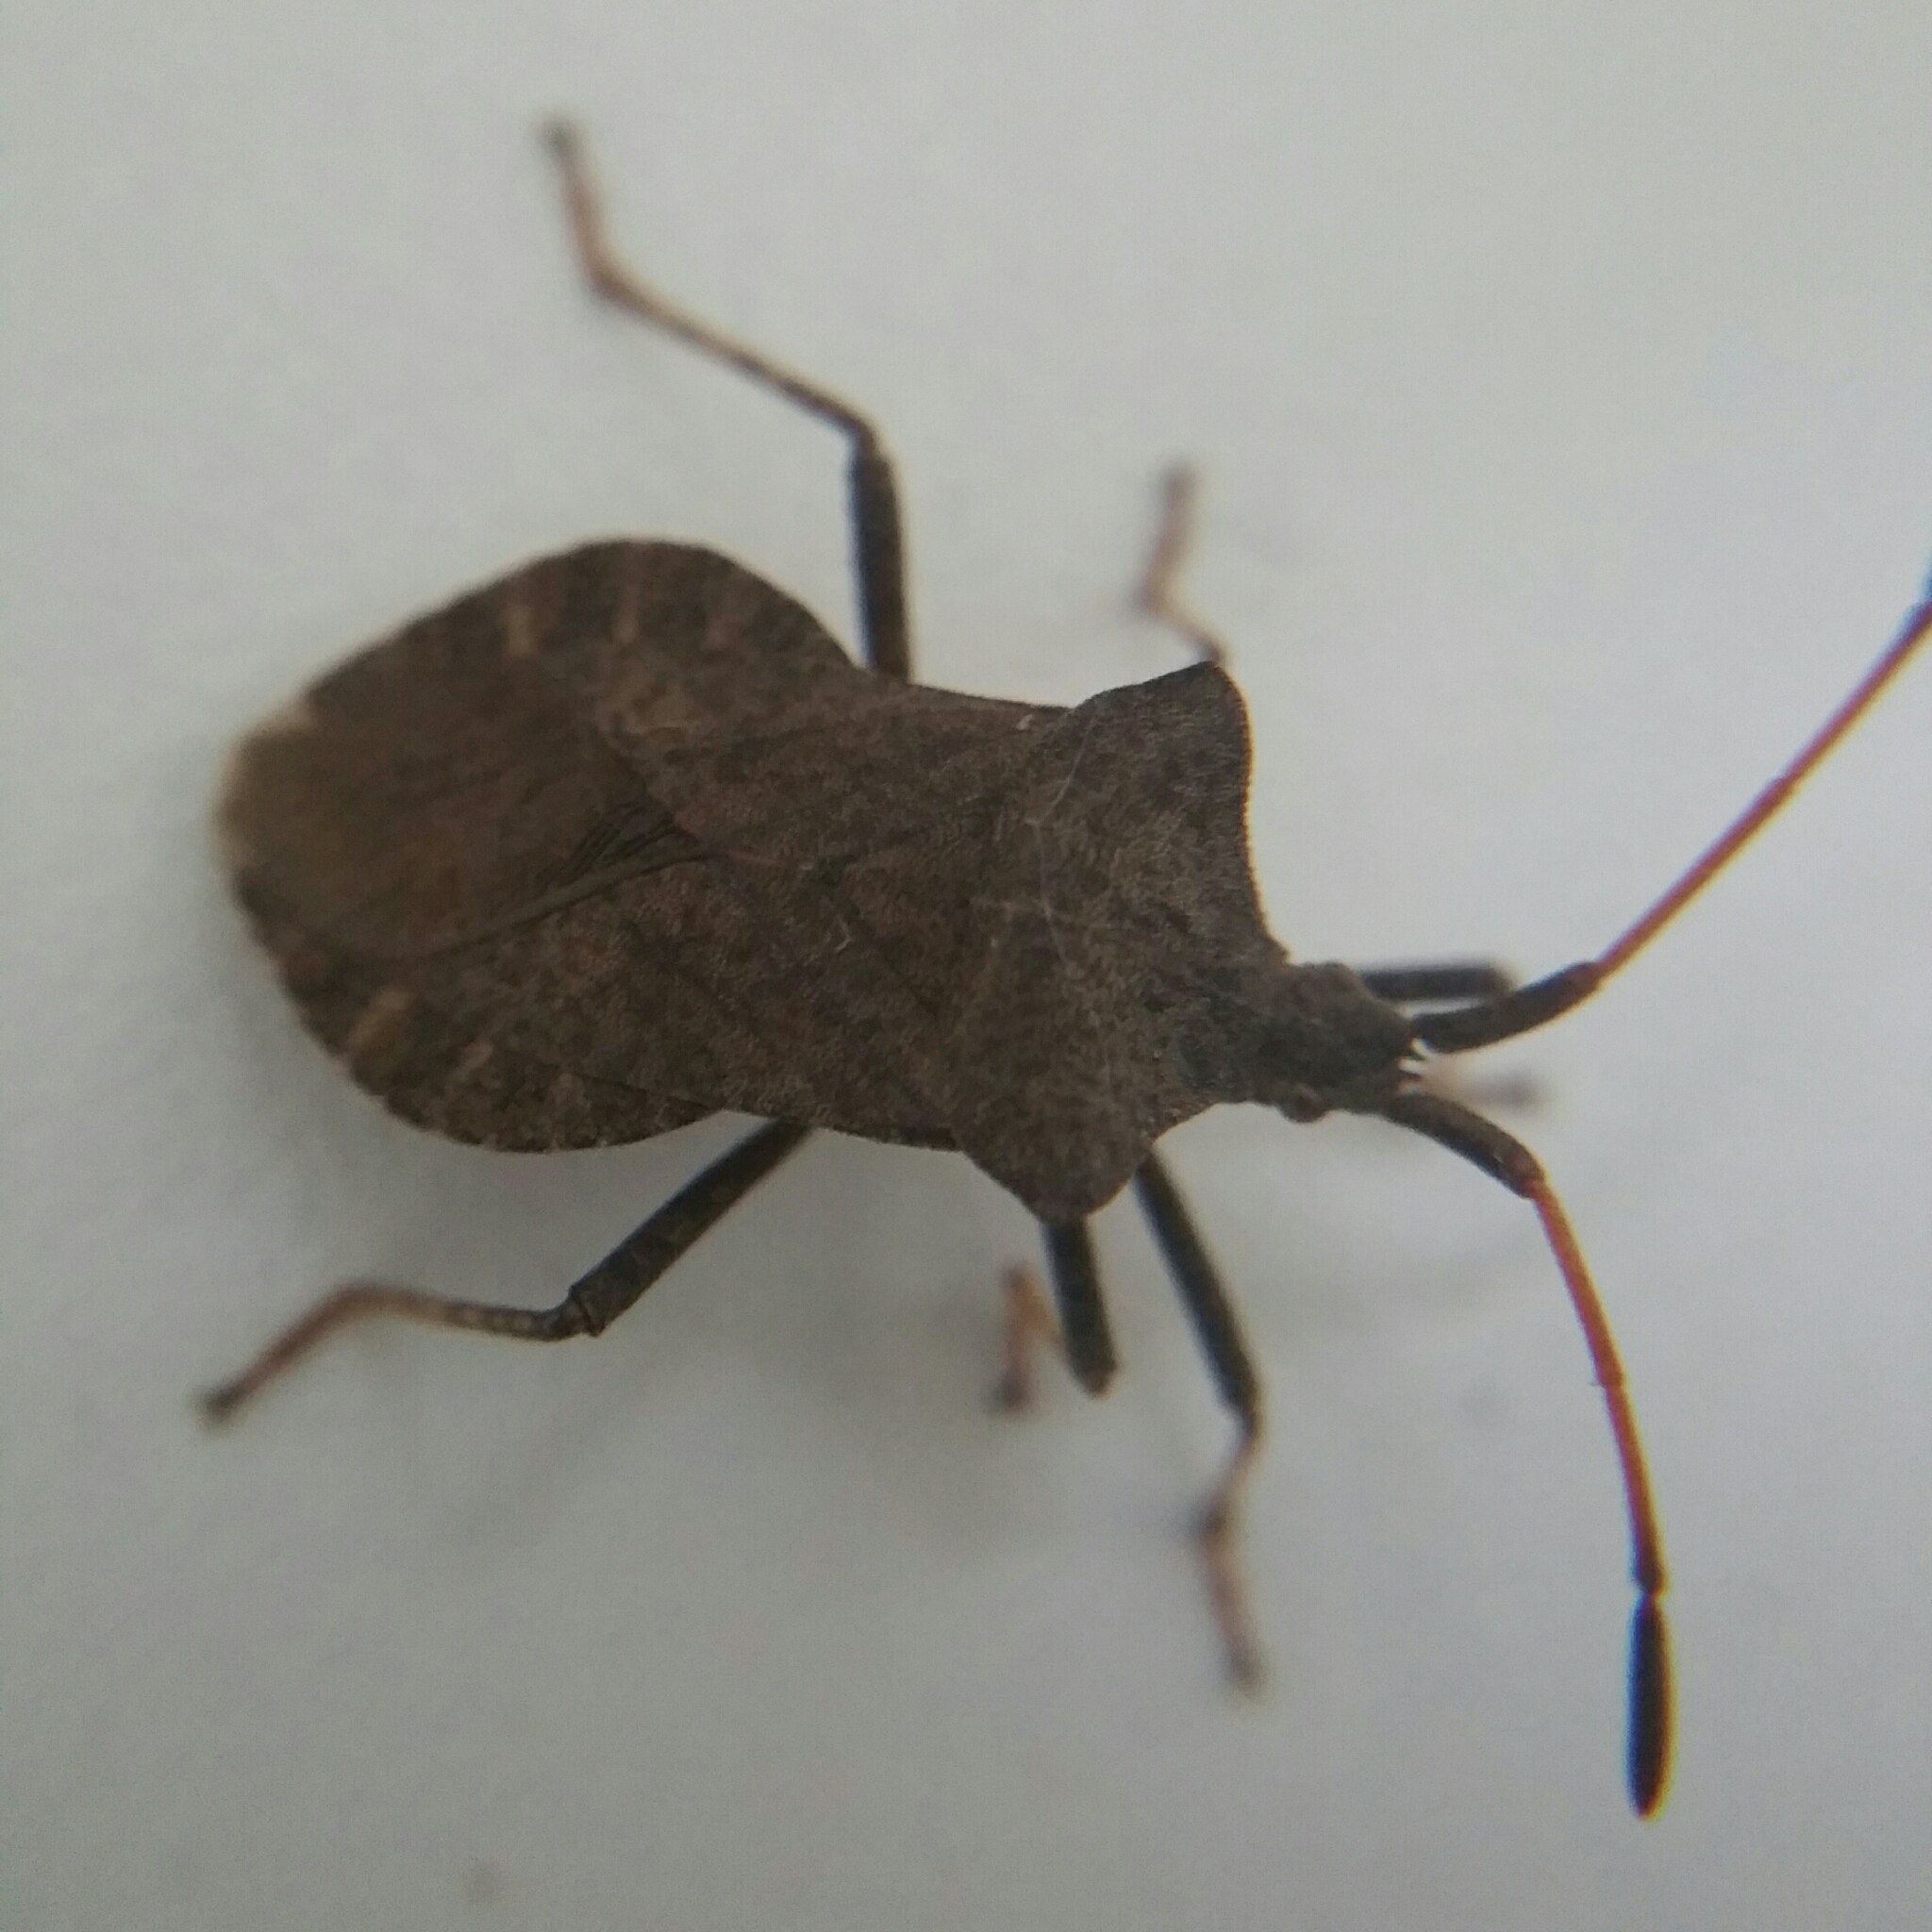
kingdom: Animalia
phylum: Arthropoda
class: Insecta
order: Hemiptera
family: Coreidae
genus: Coreus
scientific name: Coreus marginatus
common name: Dock bug
